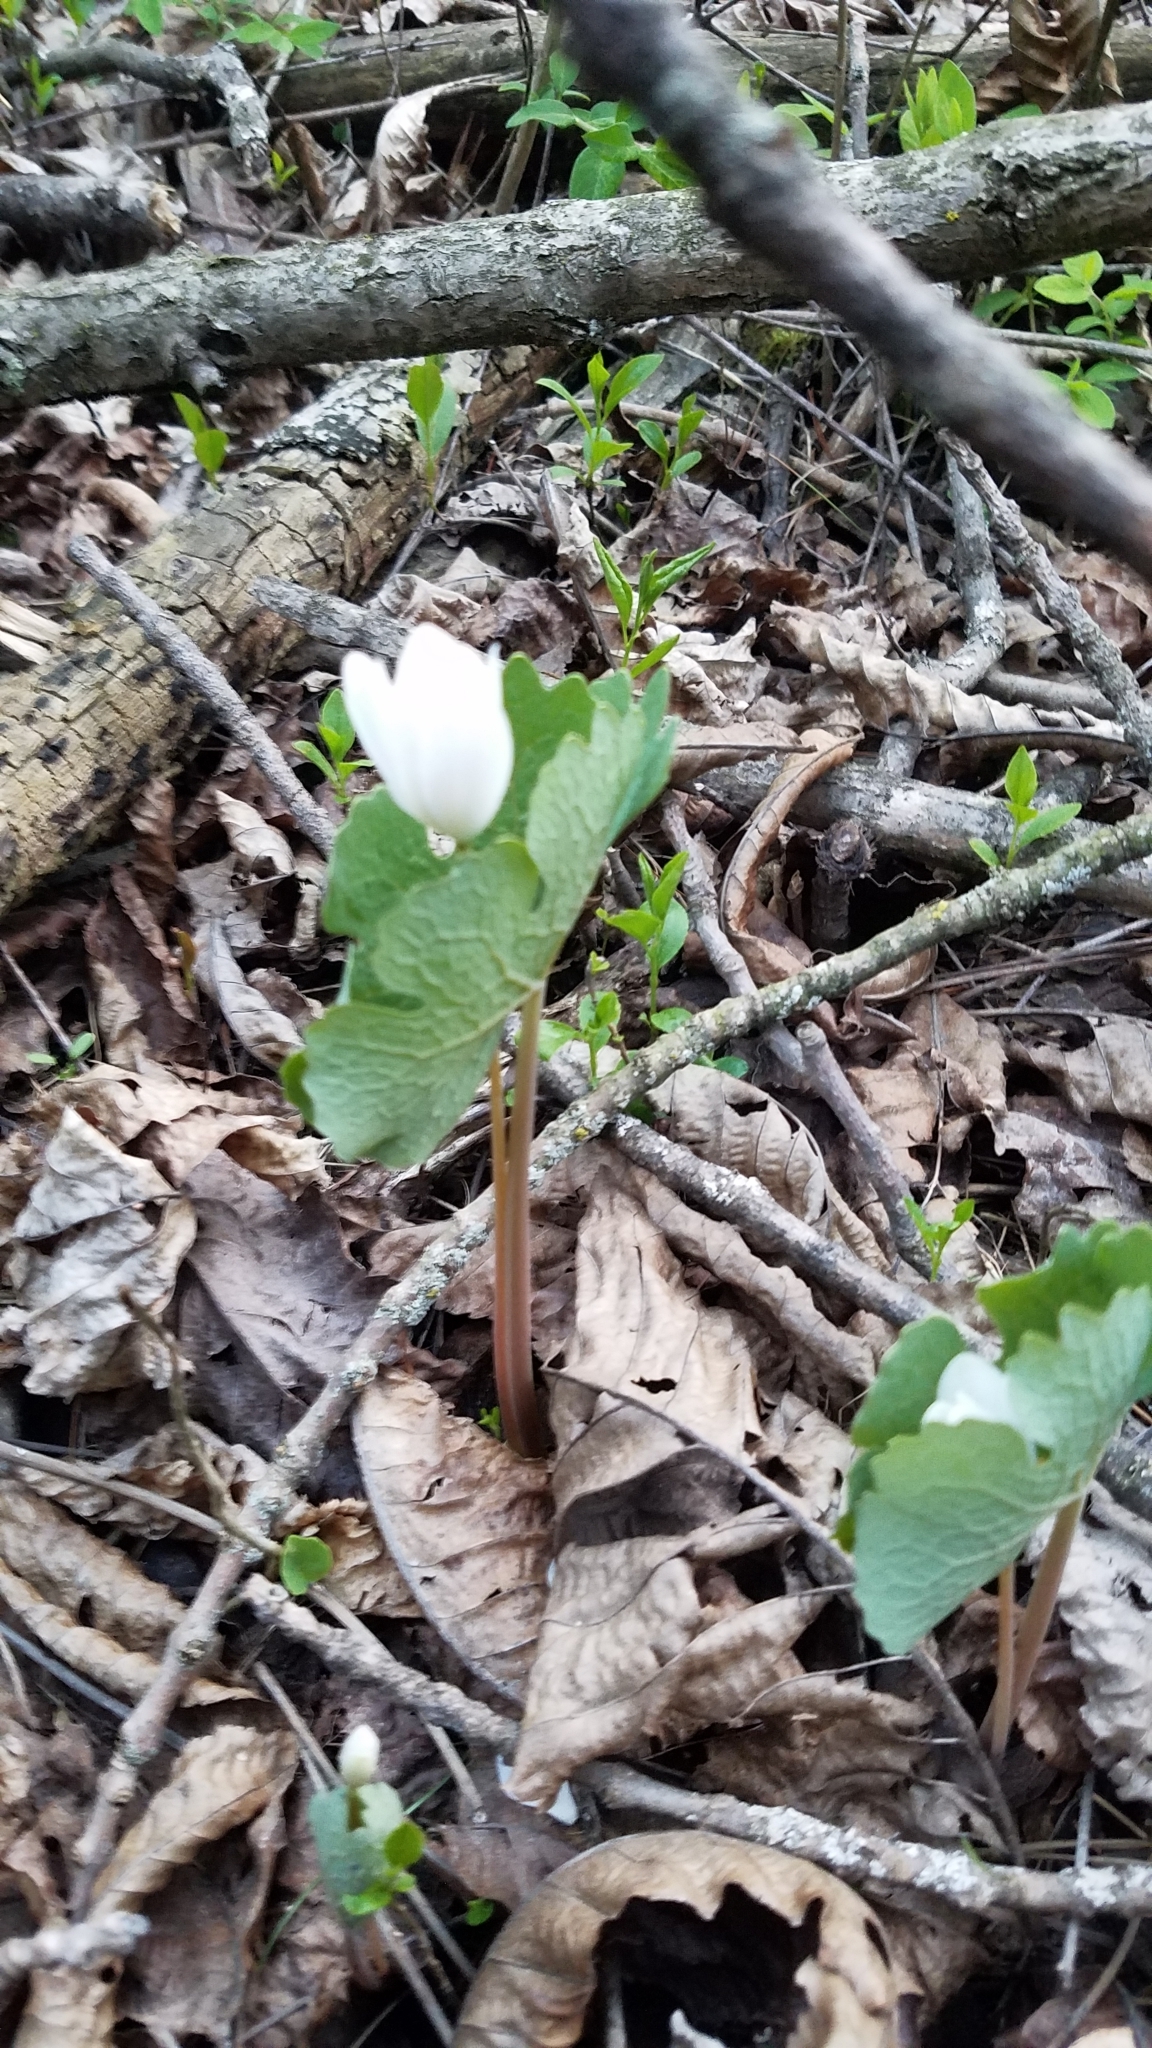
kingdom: Plantae
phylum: Tracheophyta
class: Magnoliopsida
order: Ranunculales
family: Papaveraceae
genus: Sanguinaria
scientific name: Sanguinaria canadensis
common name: Bloodroot
